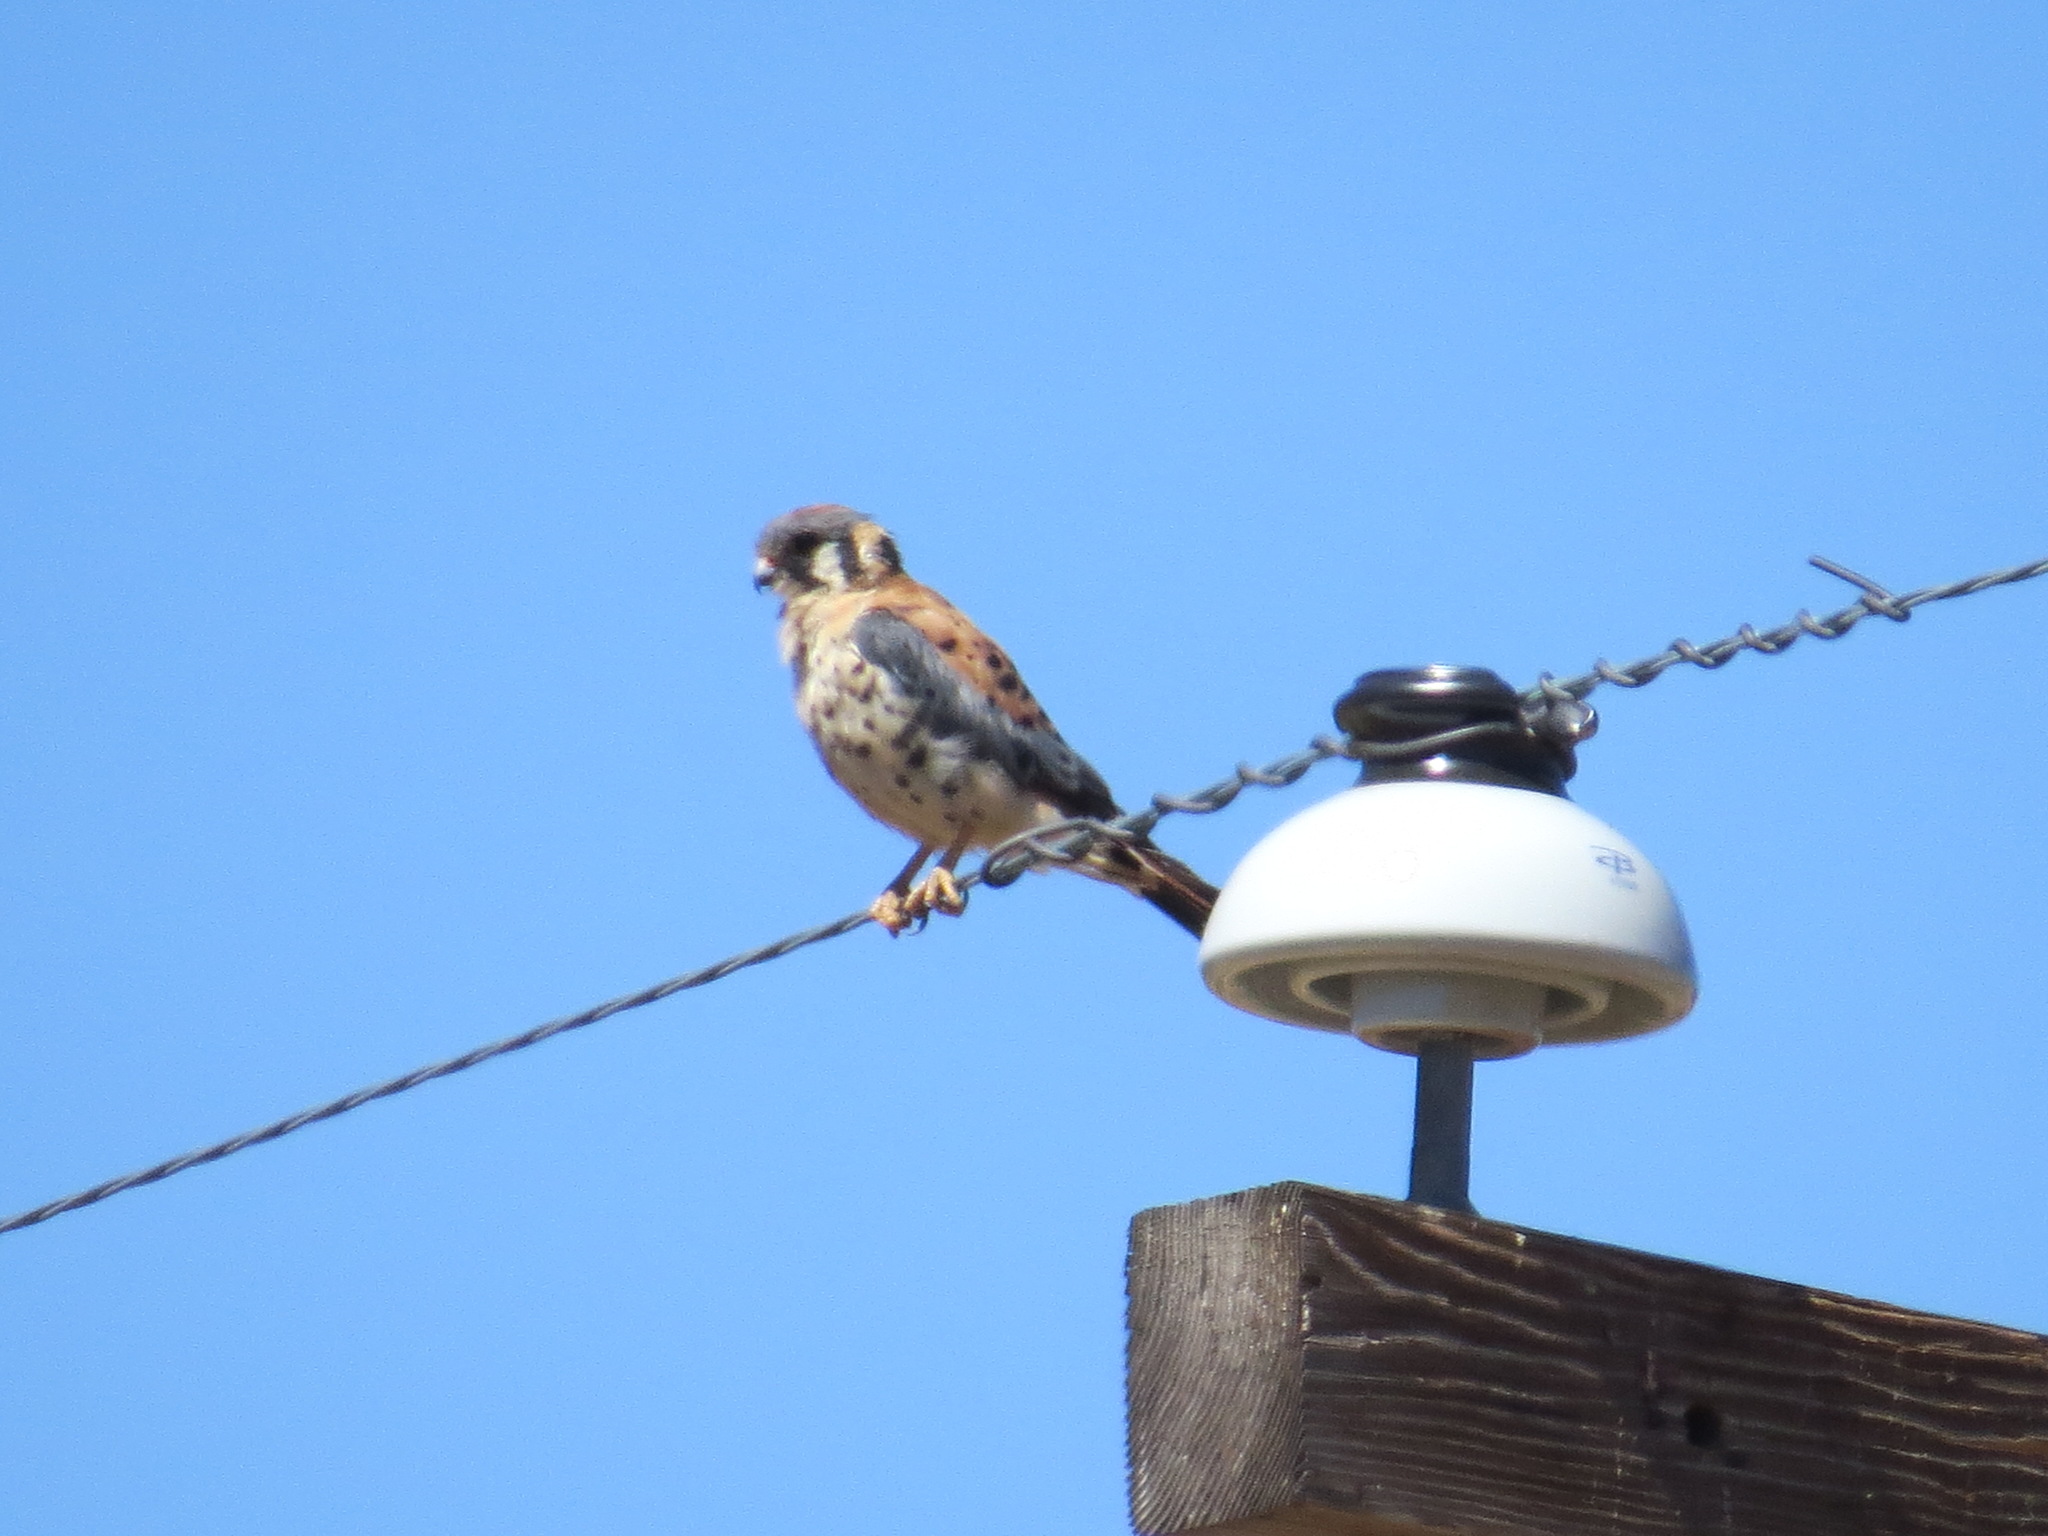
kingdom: Animalia
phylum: Chordata
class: Aves
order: Falconiformes
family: Falconidae
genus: Falco
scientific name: Falco sparverius
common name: American kestrel
